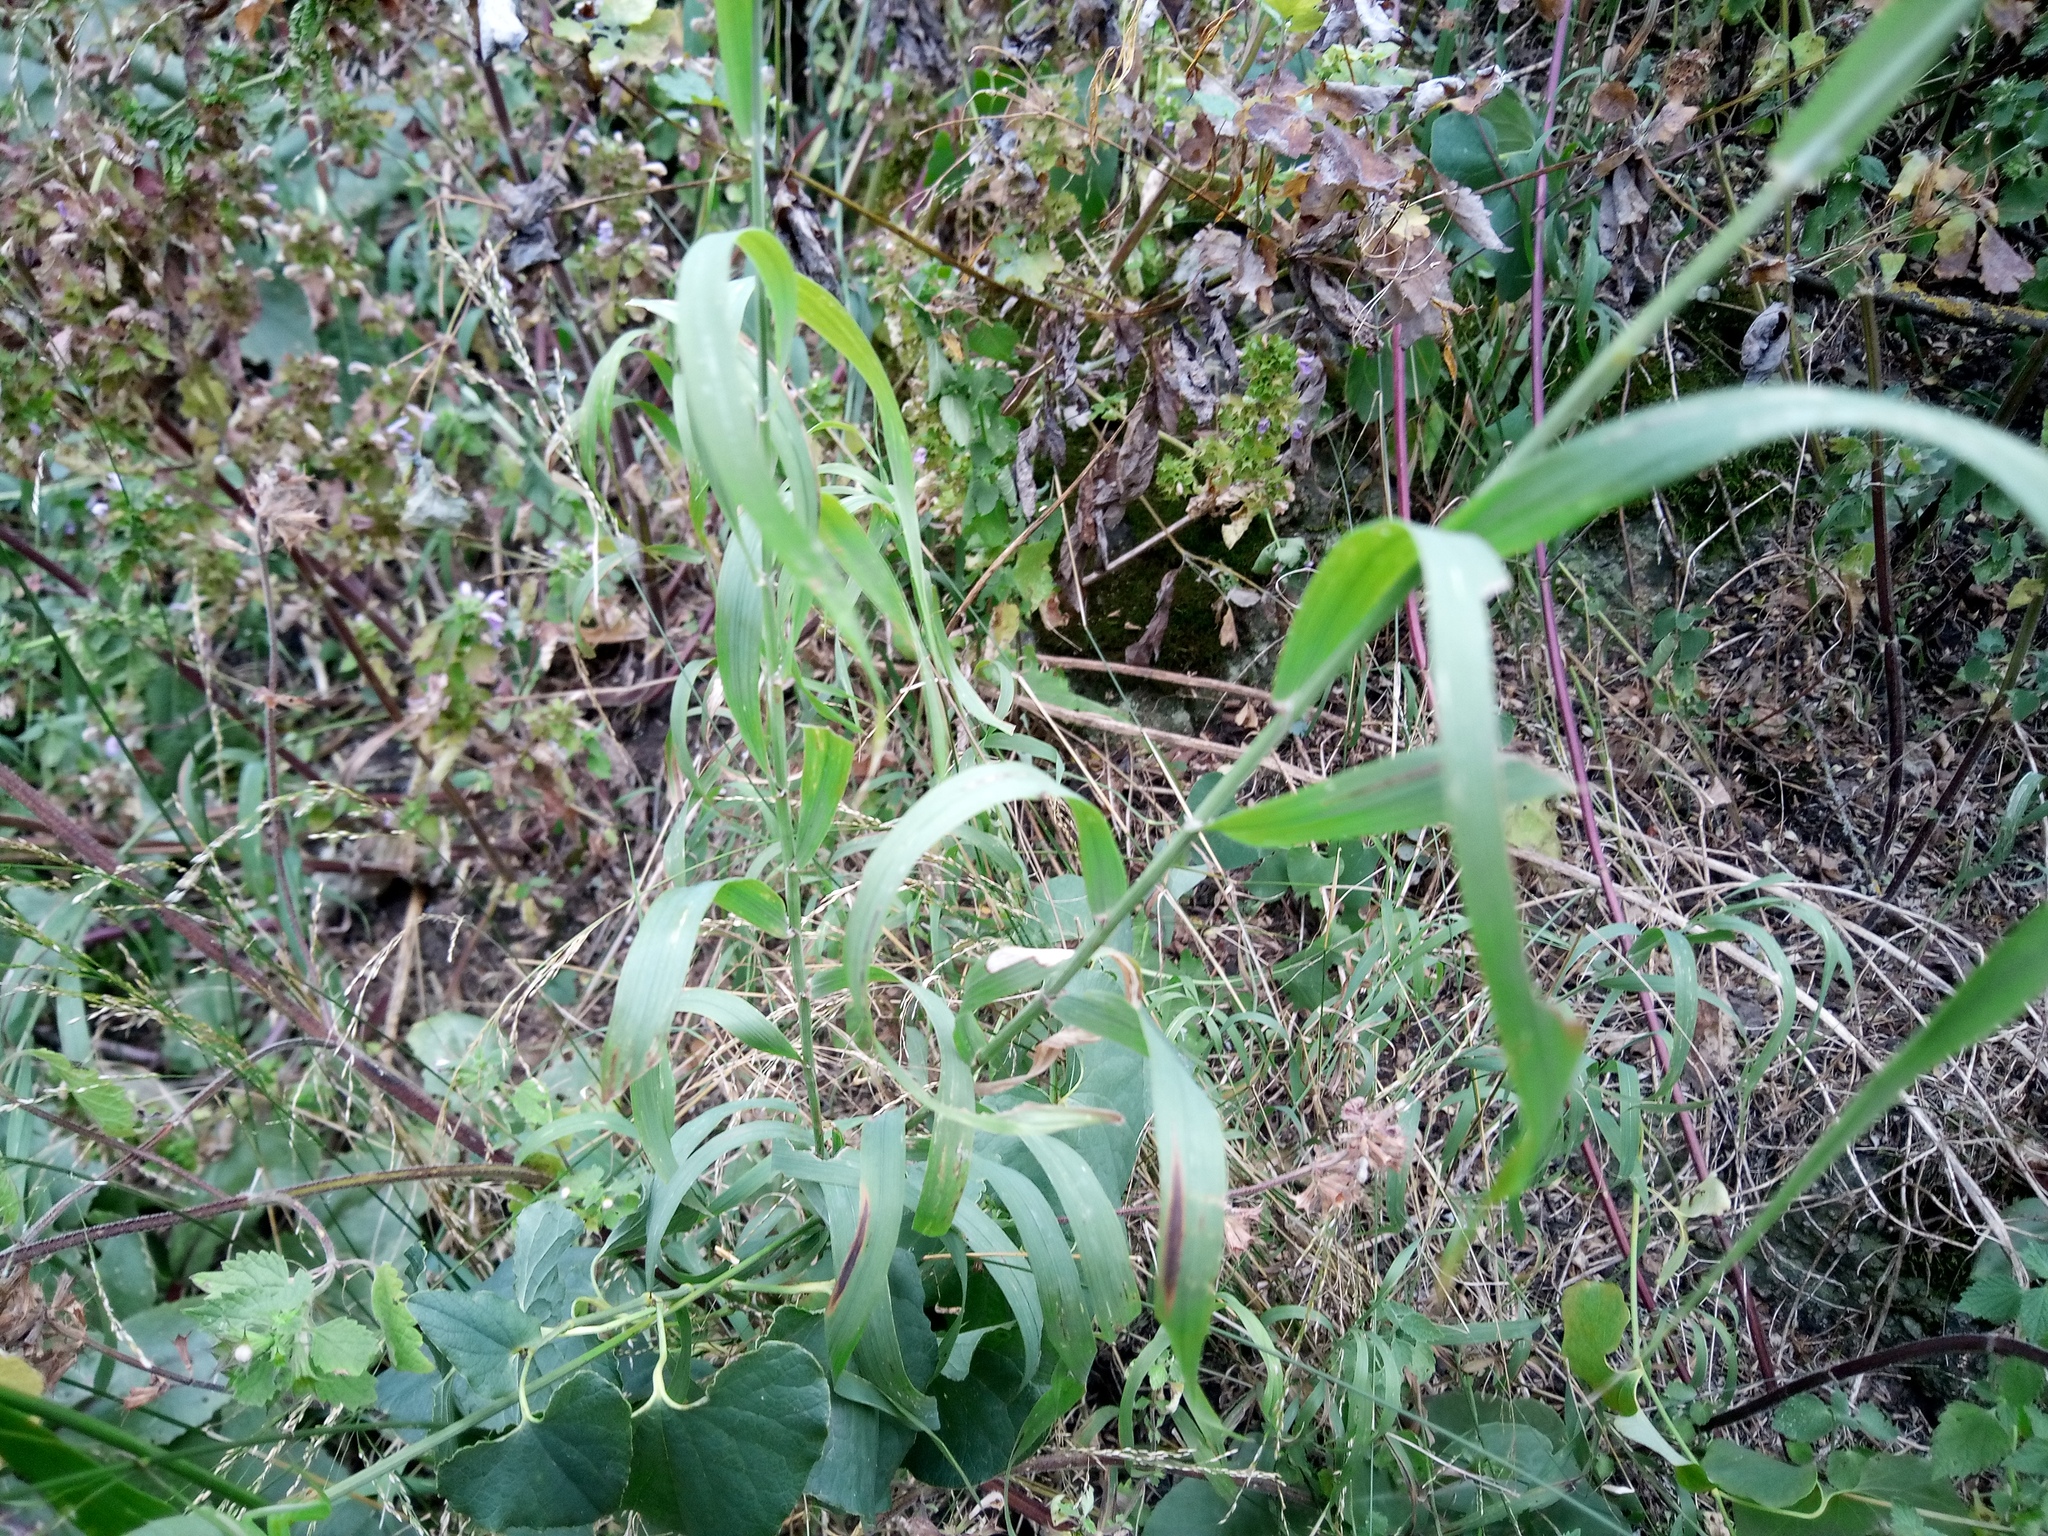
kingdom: Plantae
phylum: Tracheophyta
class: Liliopsida
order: Poales
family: Poaceae
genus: Melica
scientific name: Melica altissima
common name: Siberian melicgrass
